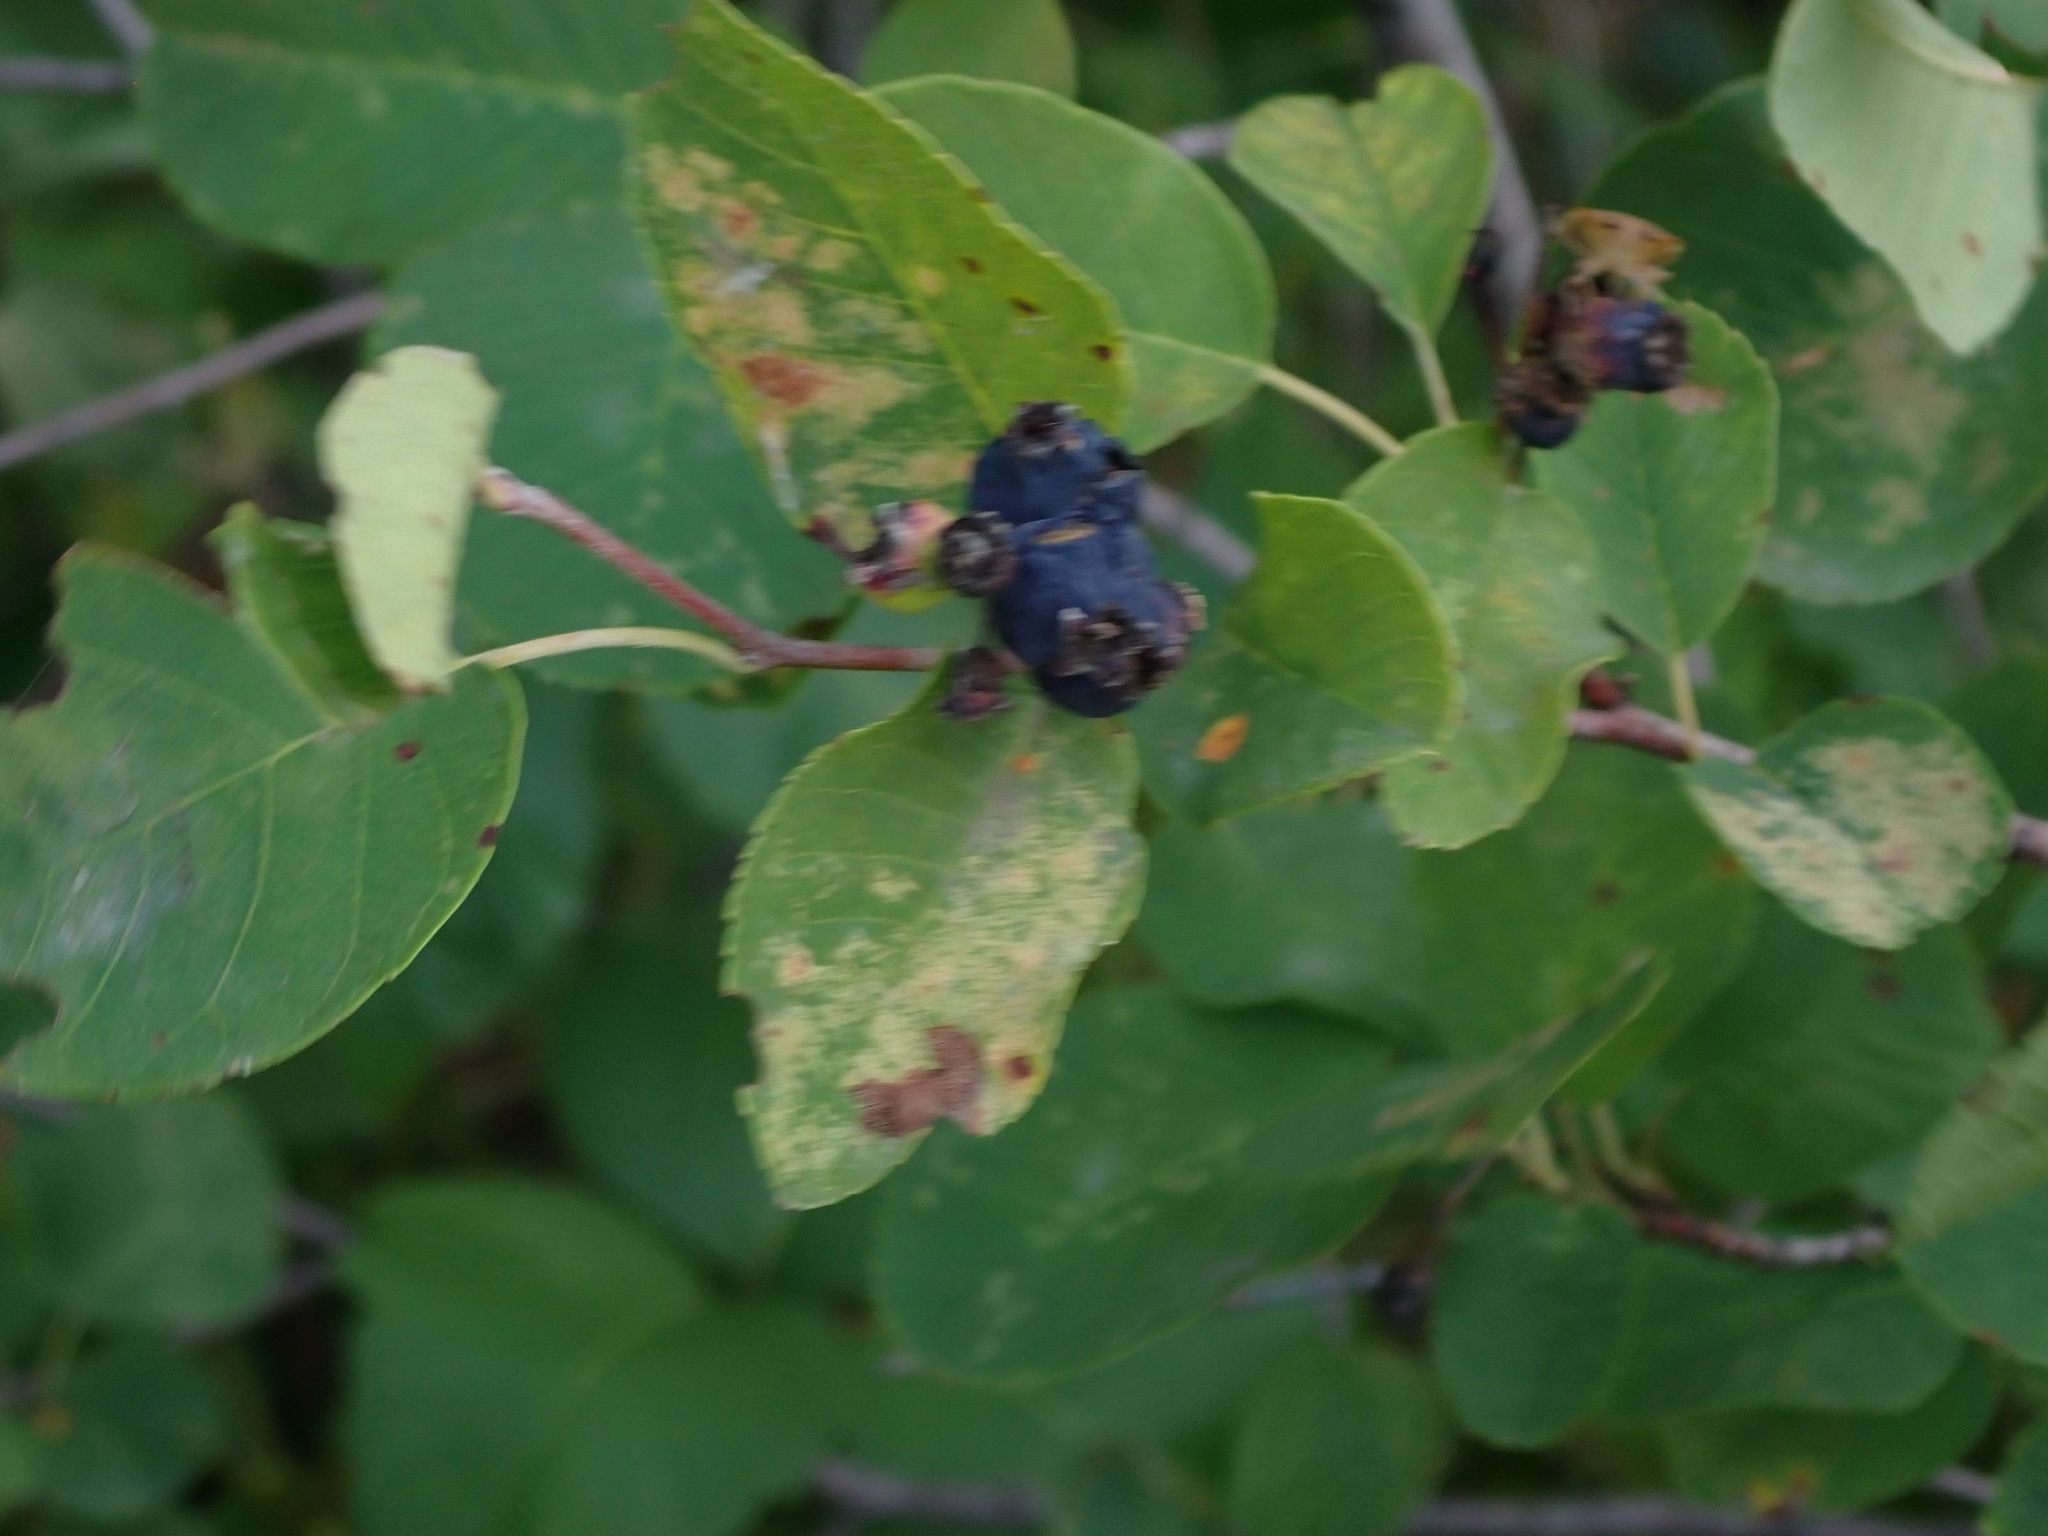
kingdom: Plantae
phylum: Tracheophyta
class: Magnoliopsida
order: Rosales
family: Rosaceae
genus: Amelanchier
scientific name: Amelanchier alnifolia
